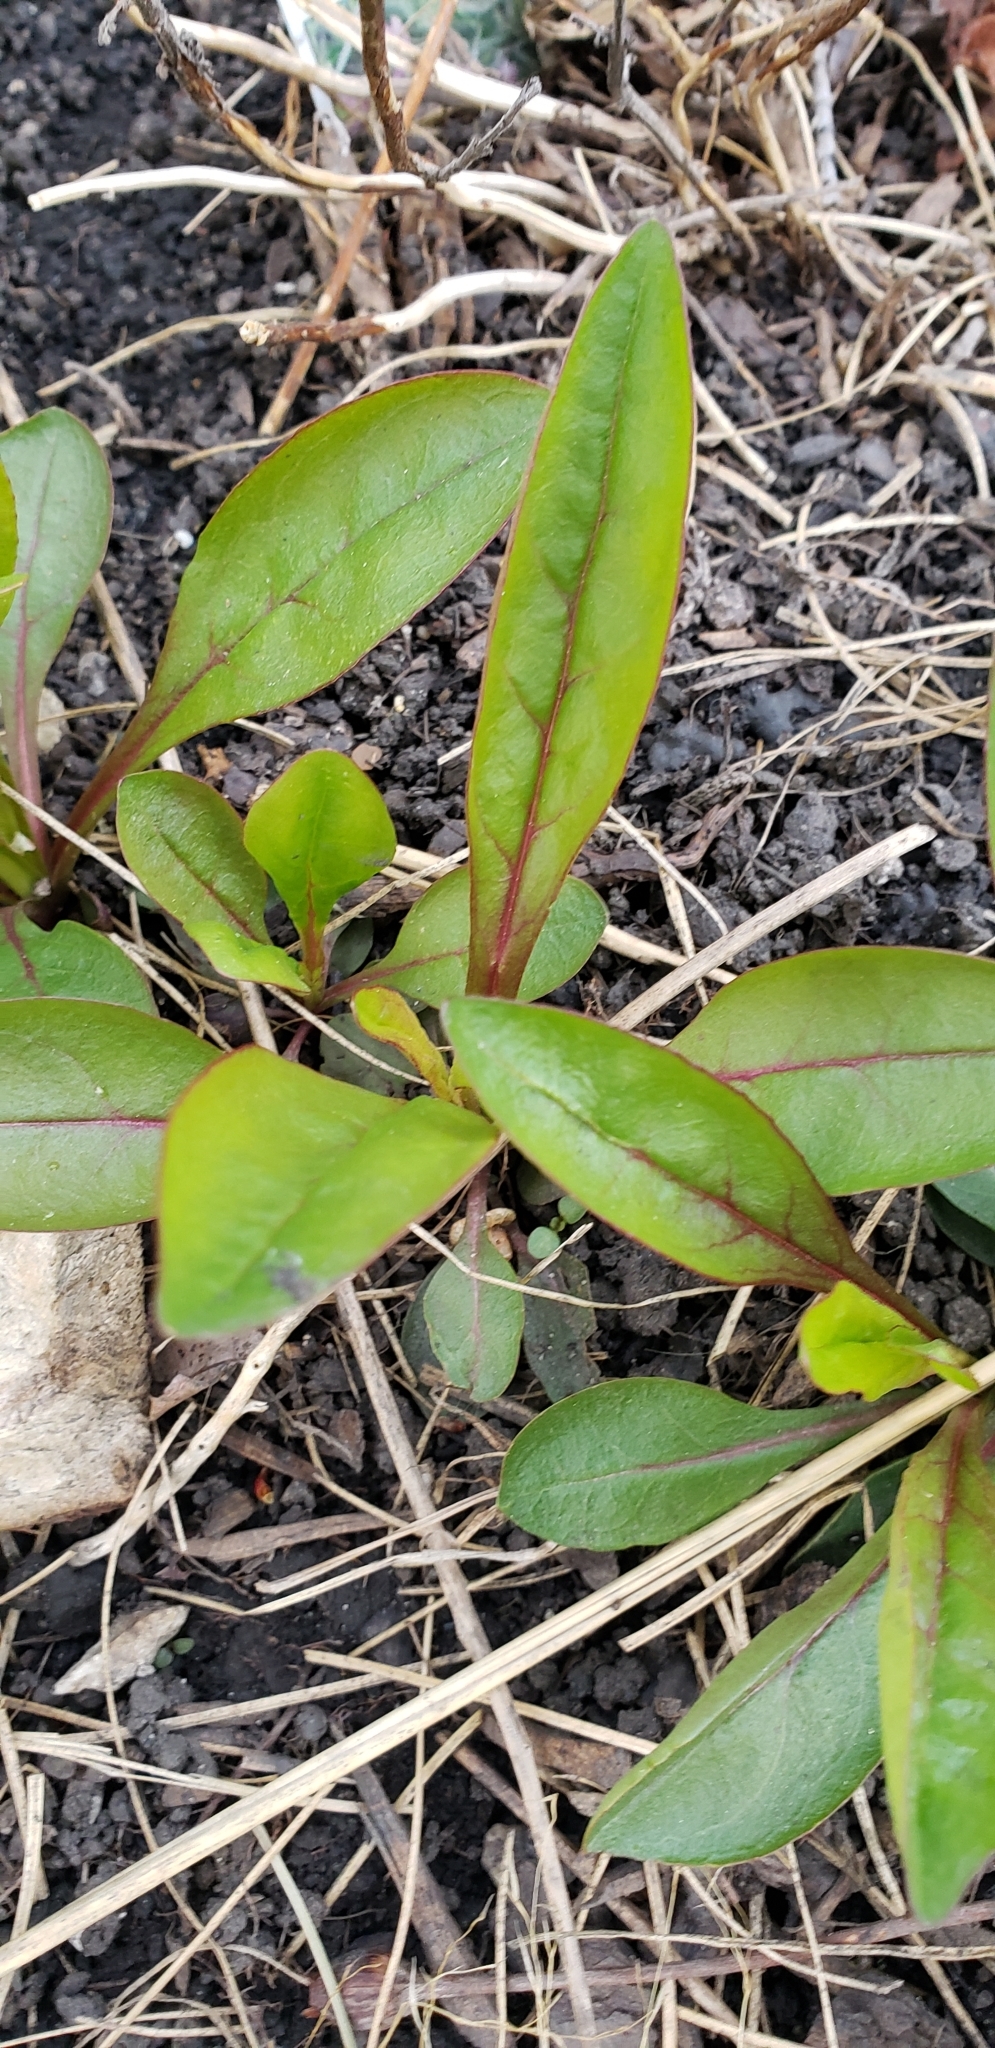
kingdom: Plantae
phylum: Tracheophyta
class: Magnoliopsida
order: Lamiales
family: Plantaginaceae
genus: Penstemon
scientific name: Penstemon digitalis
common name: Foxglove beardtongue
